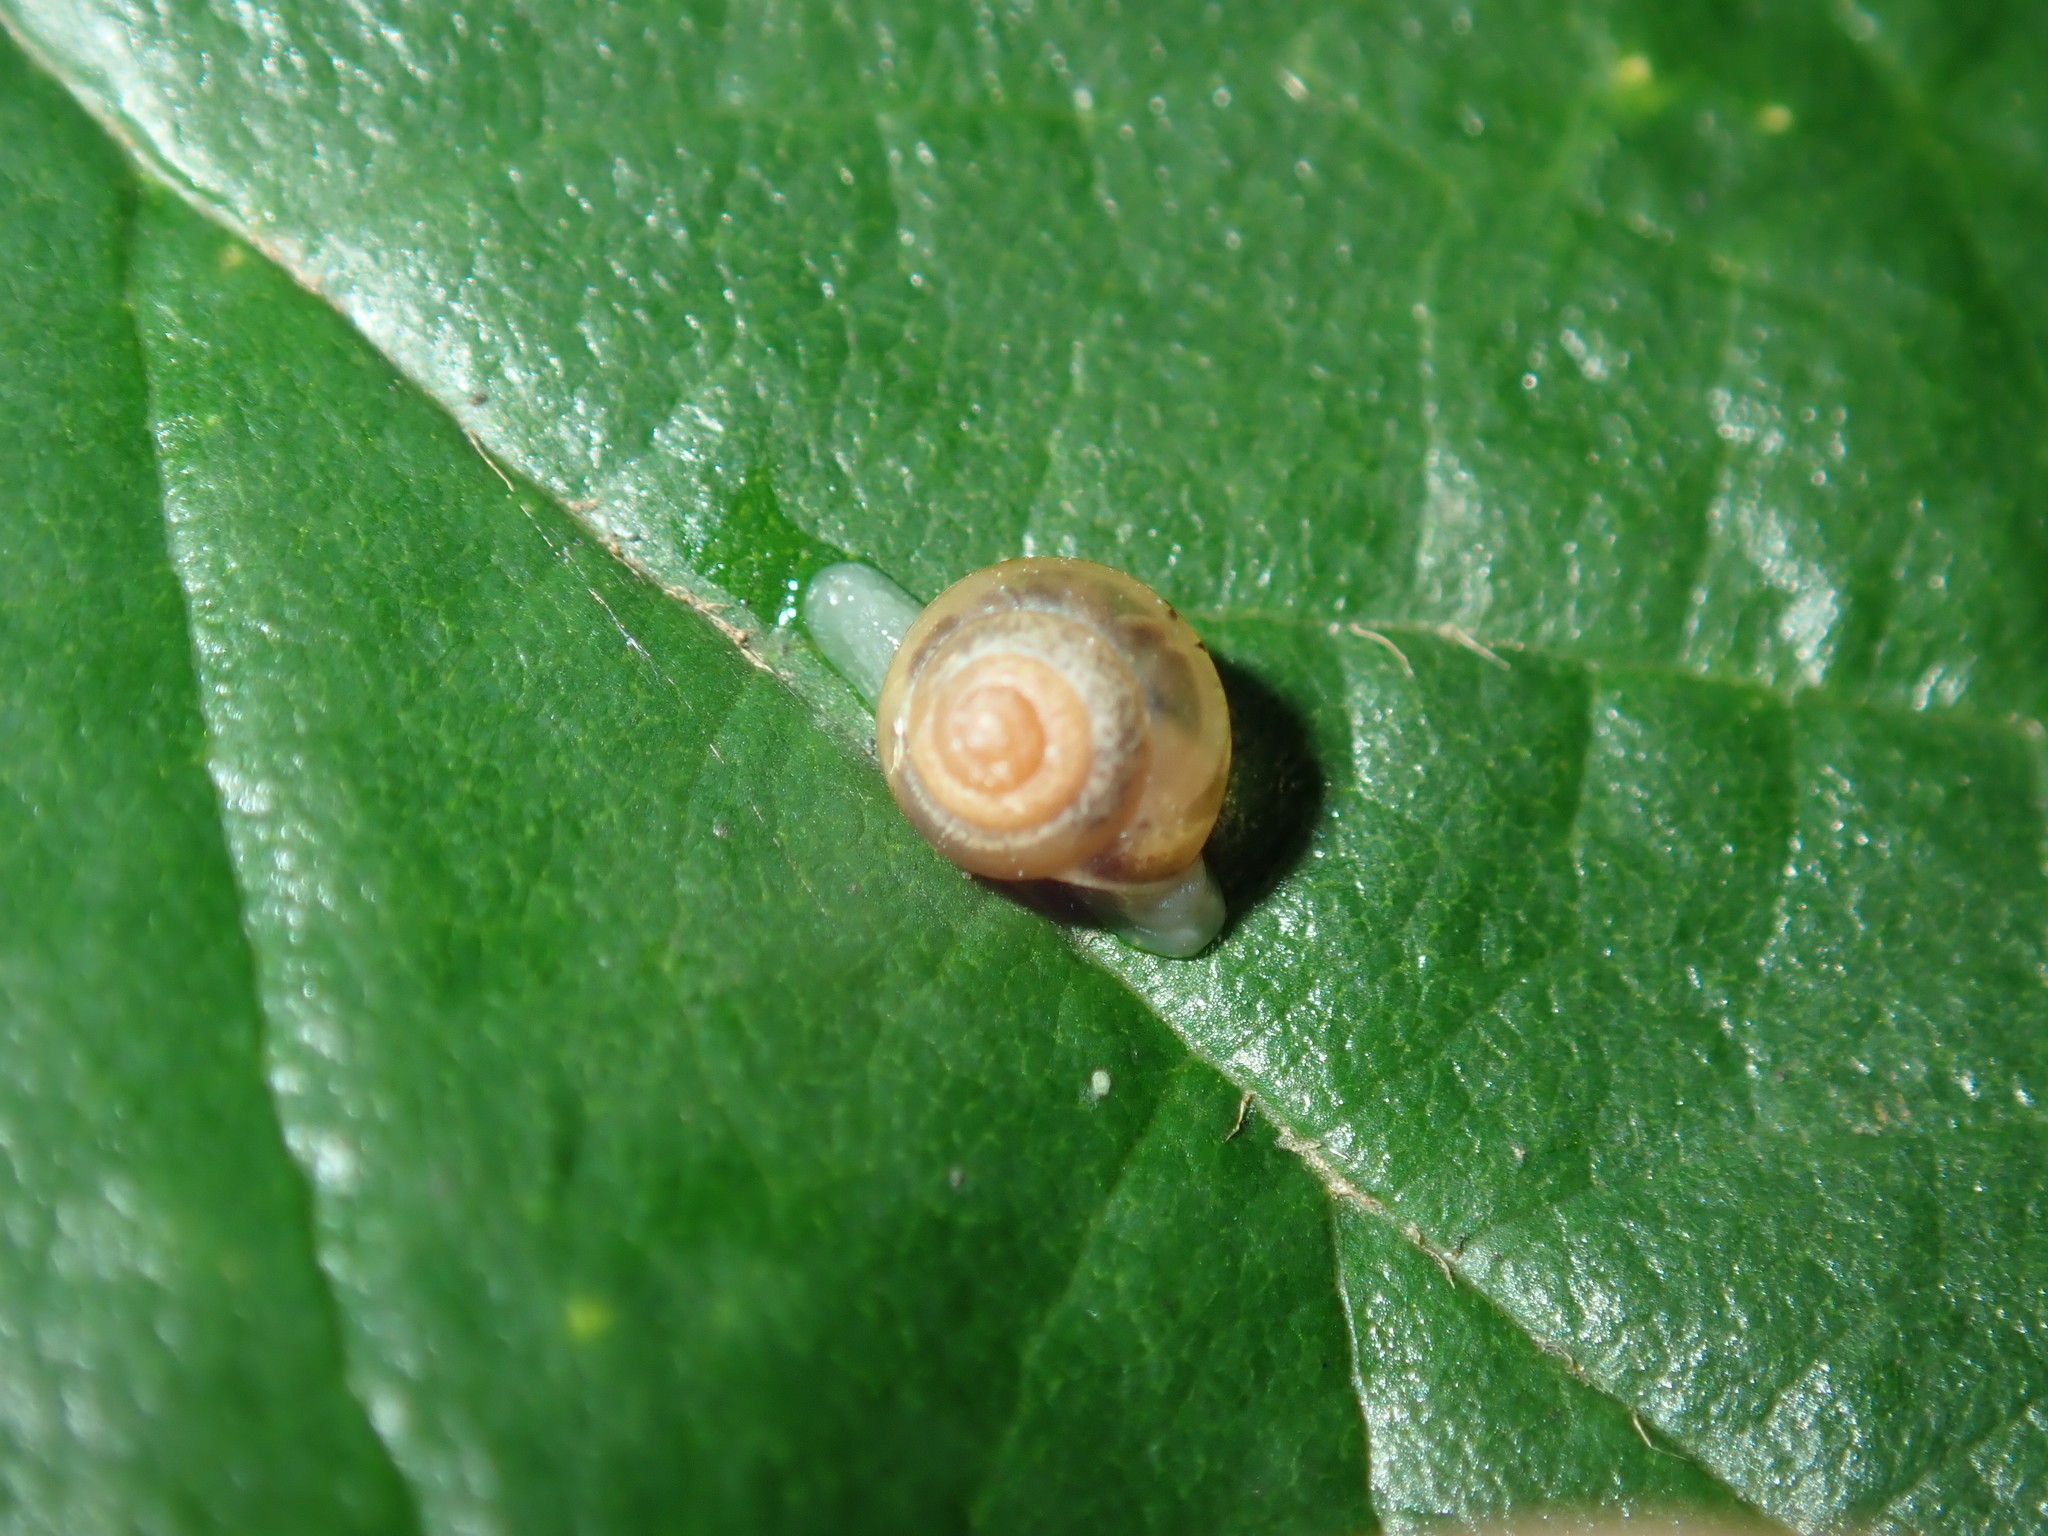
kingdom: Animalia
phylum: Mollusca
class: Gastropoda
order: Stylommatophora
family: Euconulidae
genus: Coneuplecta
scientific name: Coneuplecta calculosa
